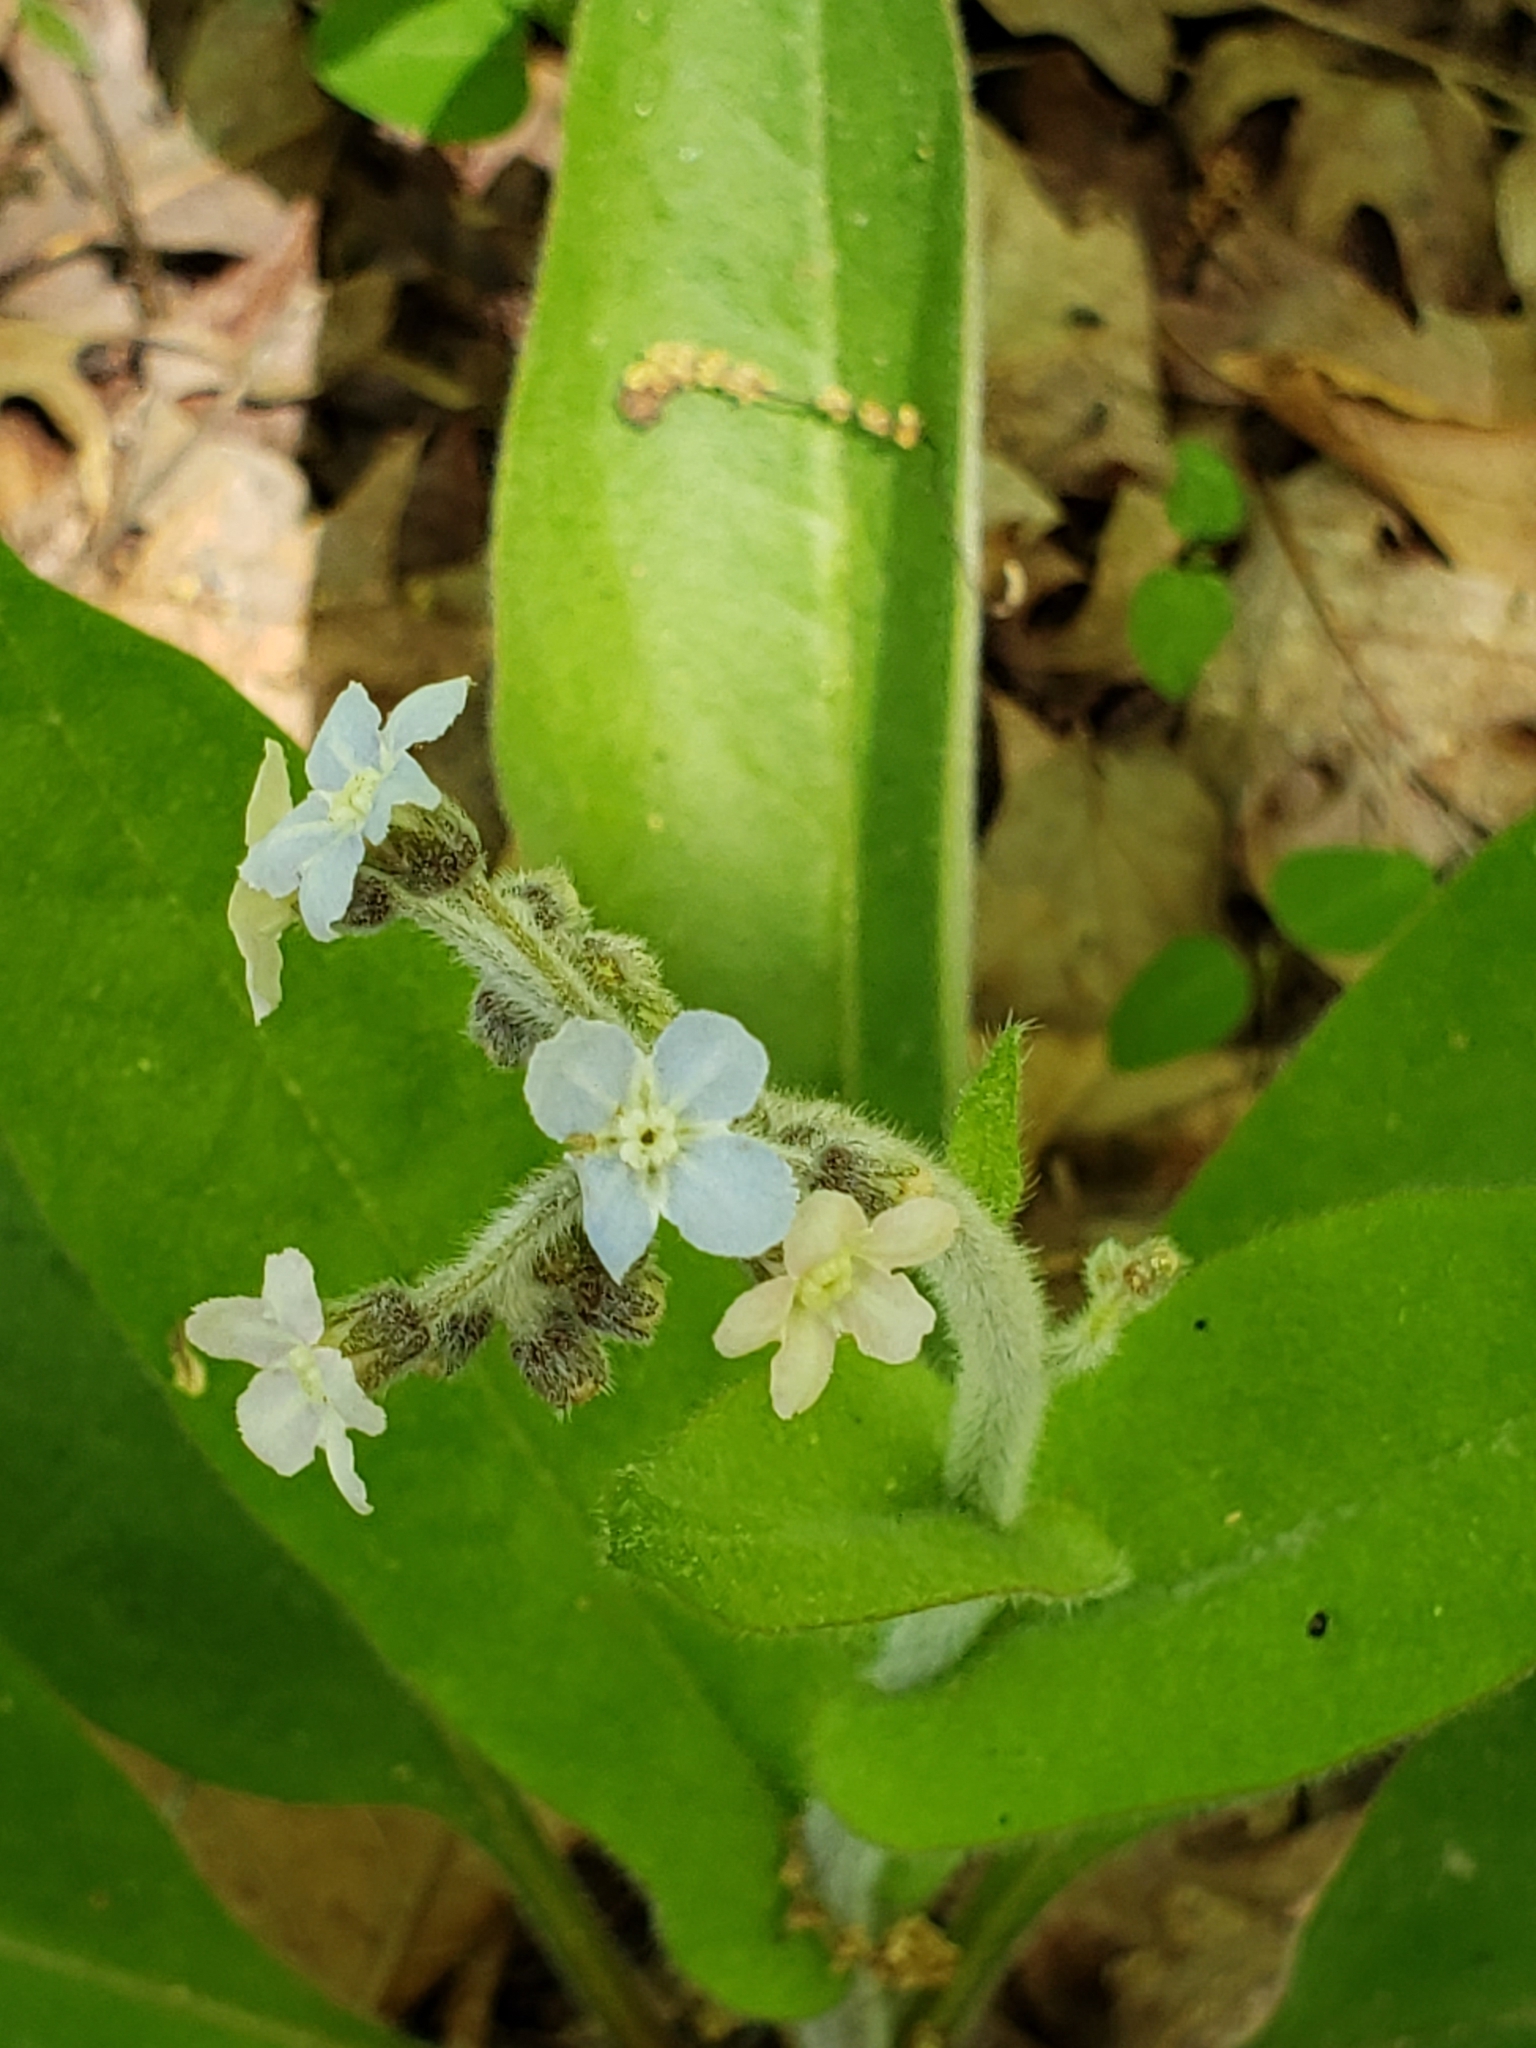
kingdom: Plantae
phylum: Tracheophyta
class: Magnoliopsida
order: Boraginales
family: Boraginaceae
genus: Andersonglossum
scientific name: Andersonglossum virginianum
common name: Wild comfrey
